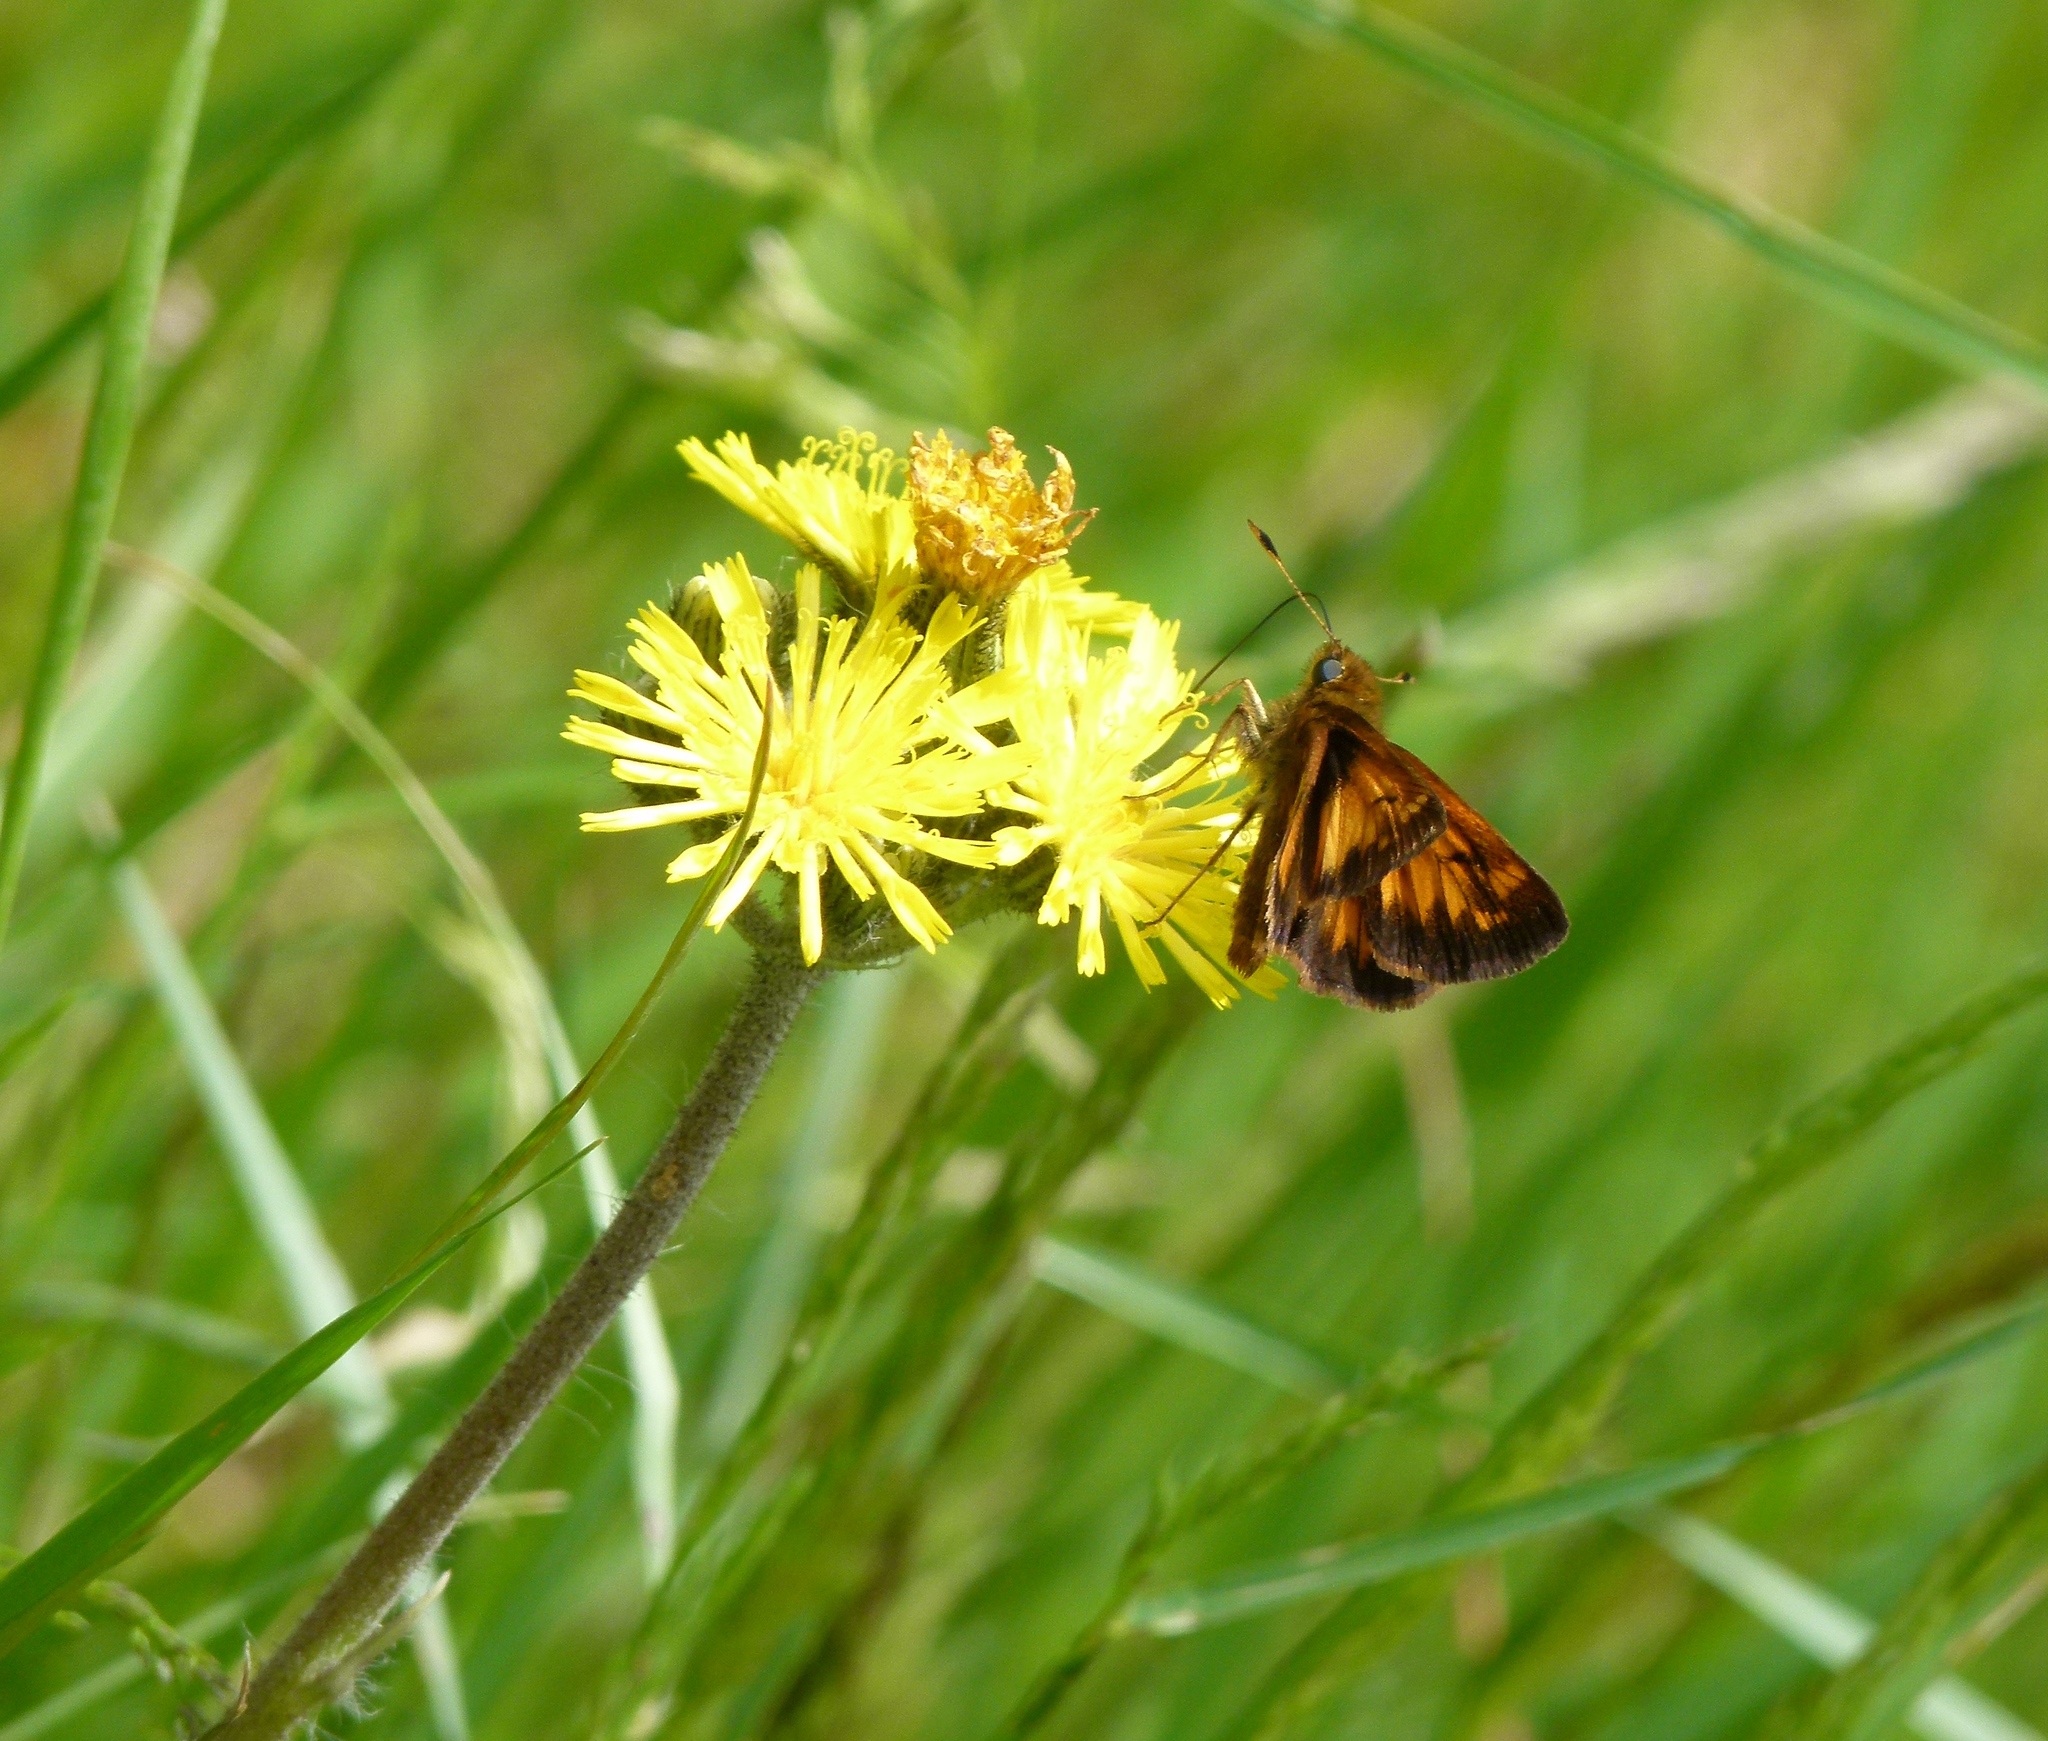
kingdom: Animalia
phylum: Arthropoda
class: Insecta
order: Lepidoptera
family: Hesperiidae
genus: Lon
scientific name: Lon hobomok
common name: Hobomok skipper
